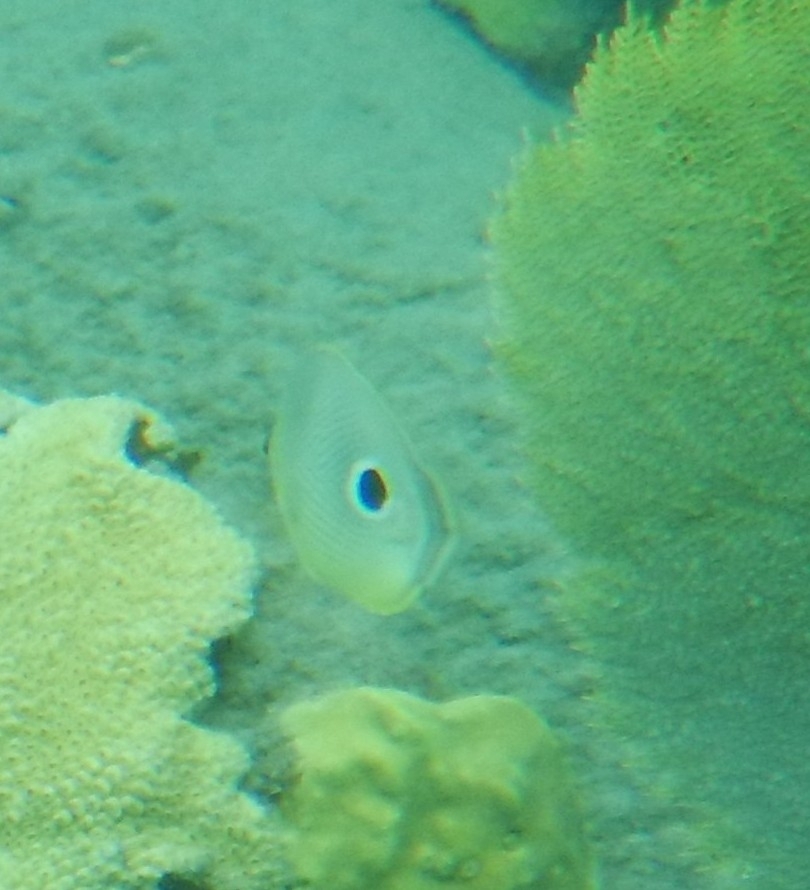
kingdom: Animalia
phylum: Chordata
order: Perciformes
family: Chaetodontidae
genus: Chaetodon
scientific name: Chaetodon capistratus
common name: Kete
